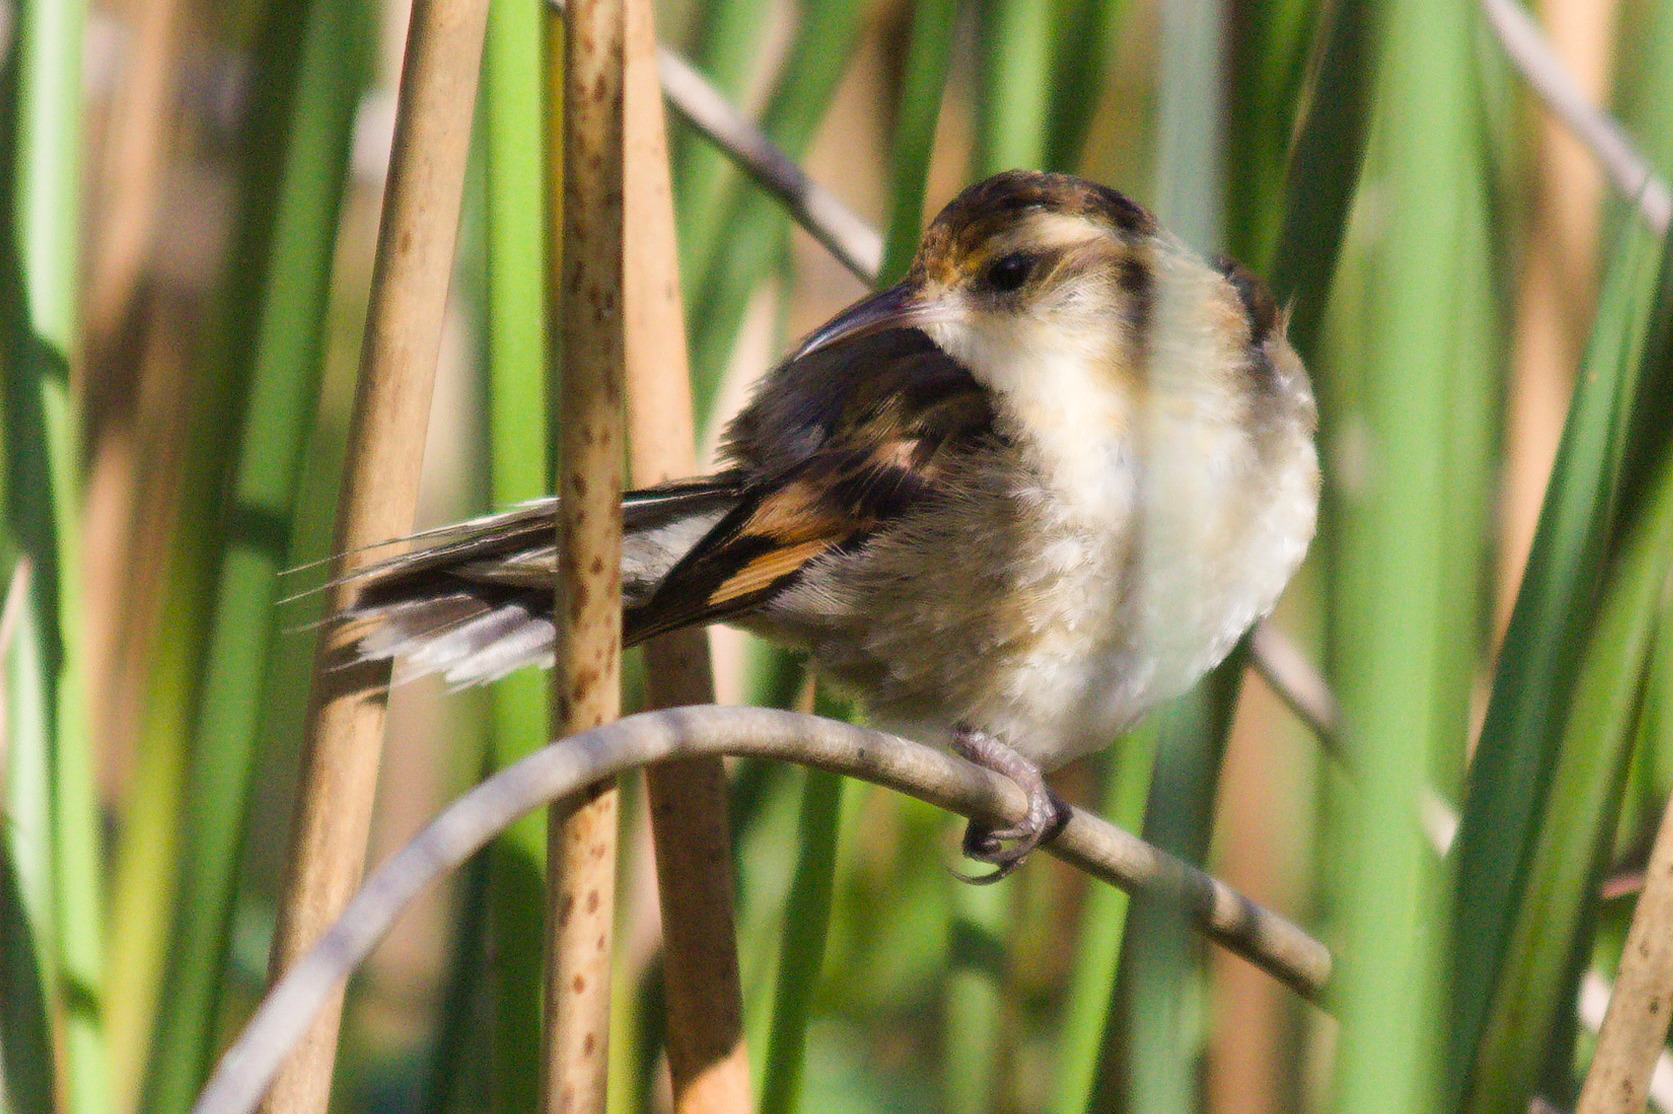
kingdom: Animalia
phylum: Chordata
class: Aves
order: Passeriformes
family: Furnariidae
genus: Phleocryptes
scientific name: Phleocryptes melanops
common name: Wren-like rushbird
